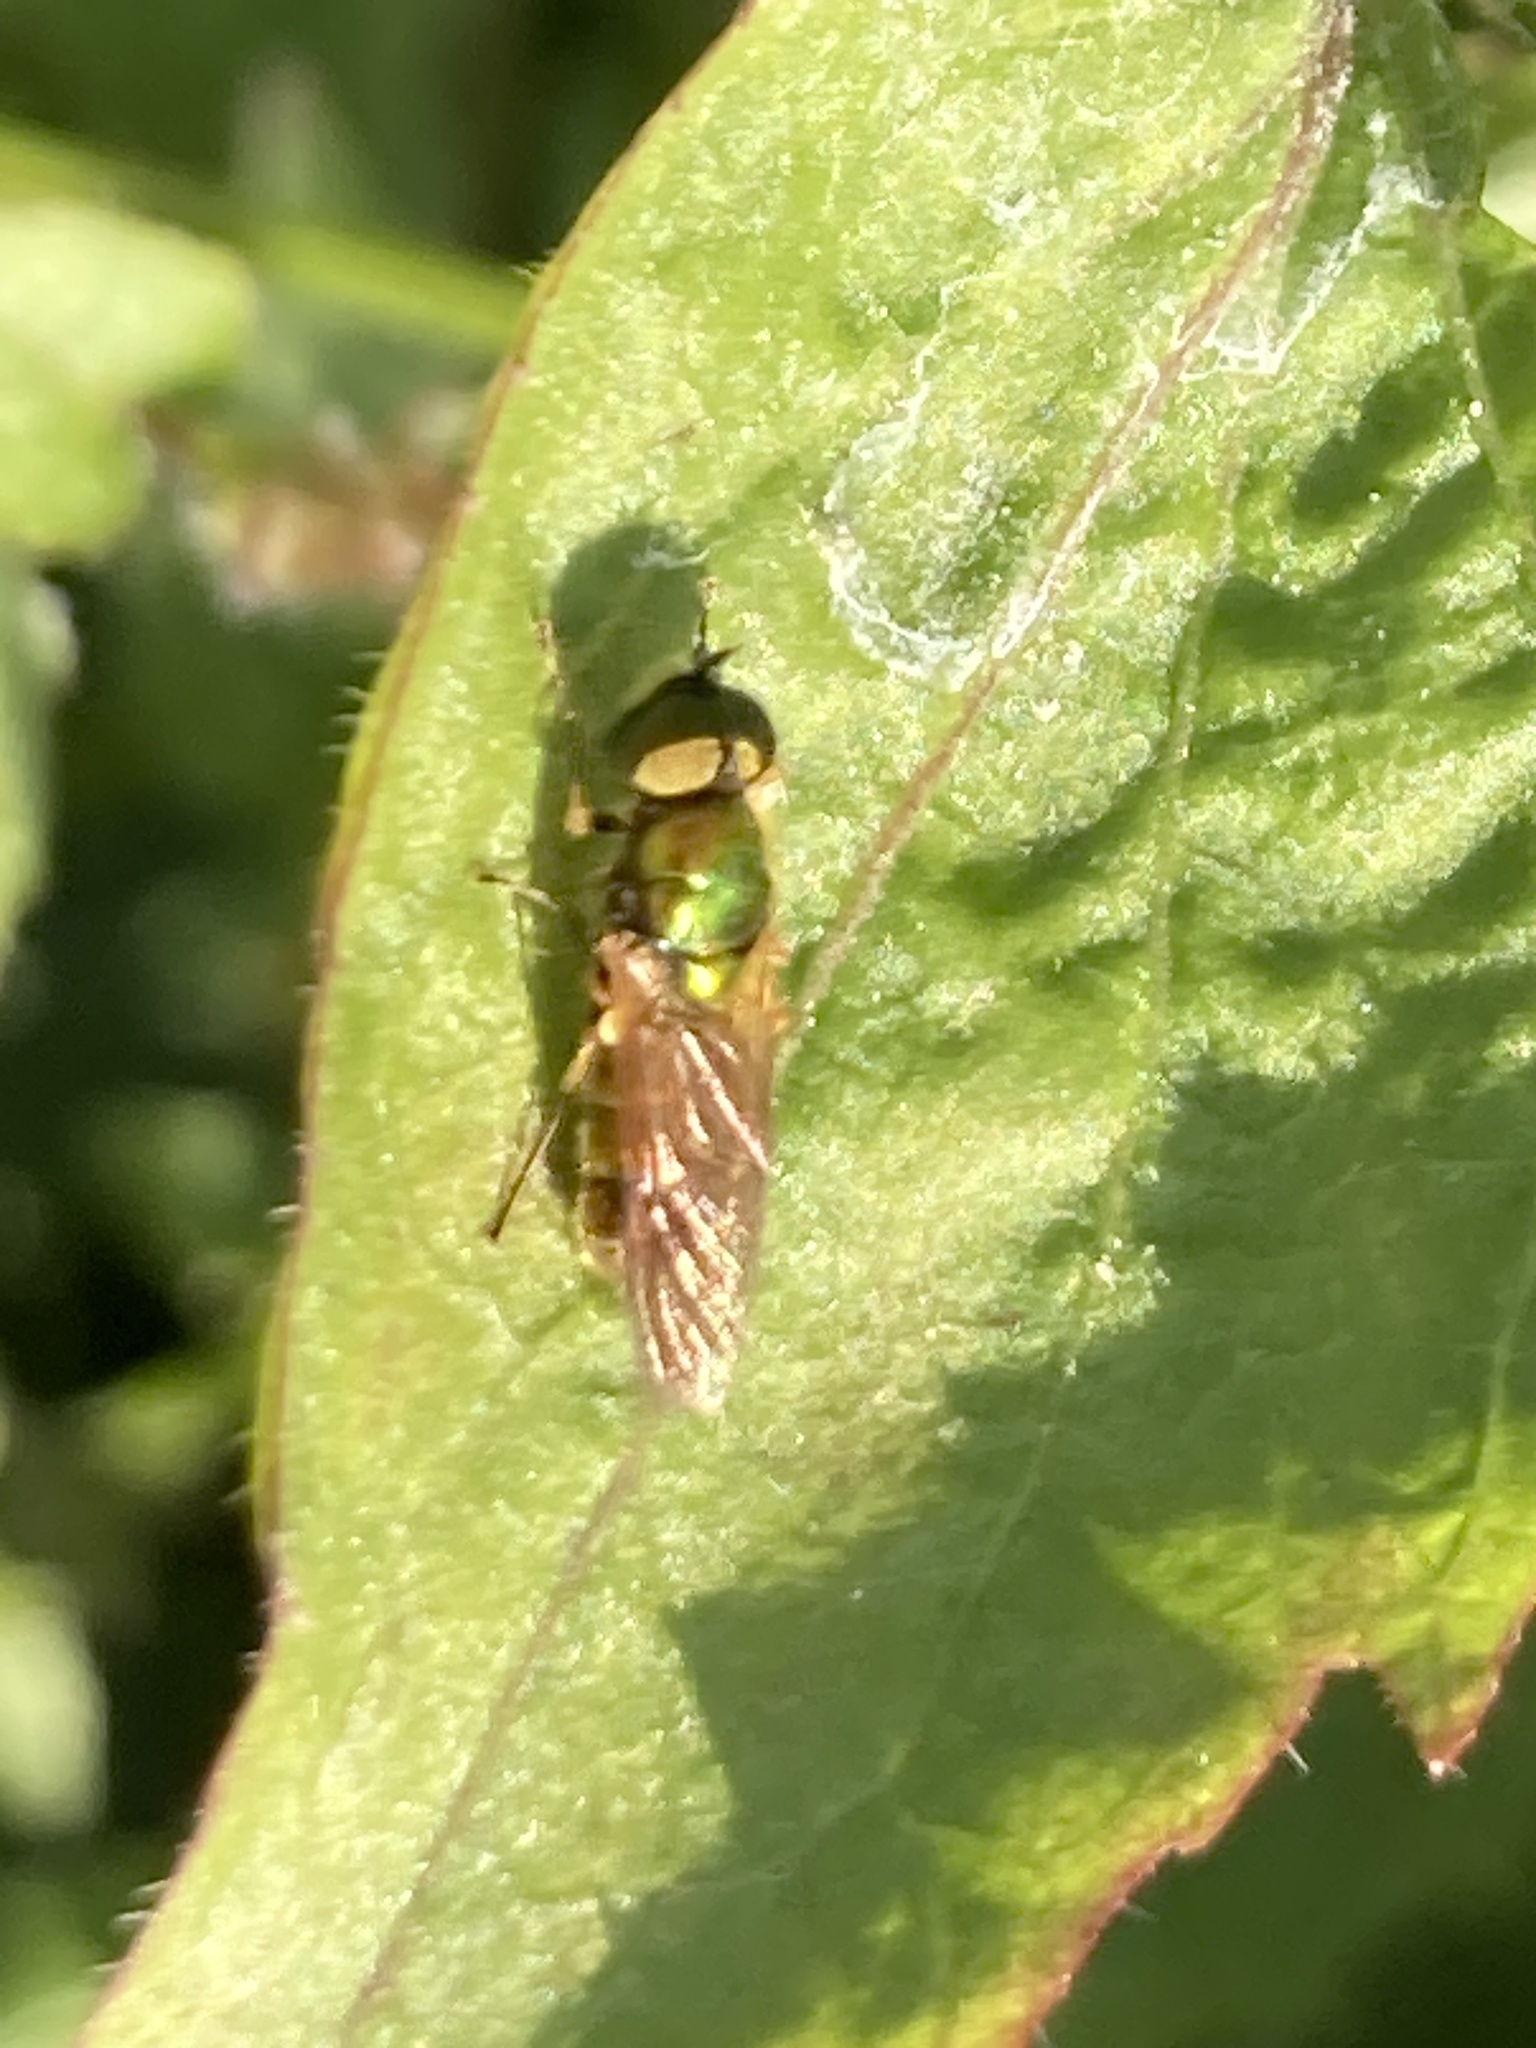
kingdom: Animalia
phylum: Arthropoda
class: Insecta
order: Diptera
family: Stratiomyidae
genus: Chloromyia
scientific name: Chloromyia formosa
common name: Soldier fly
